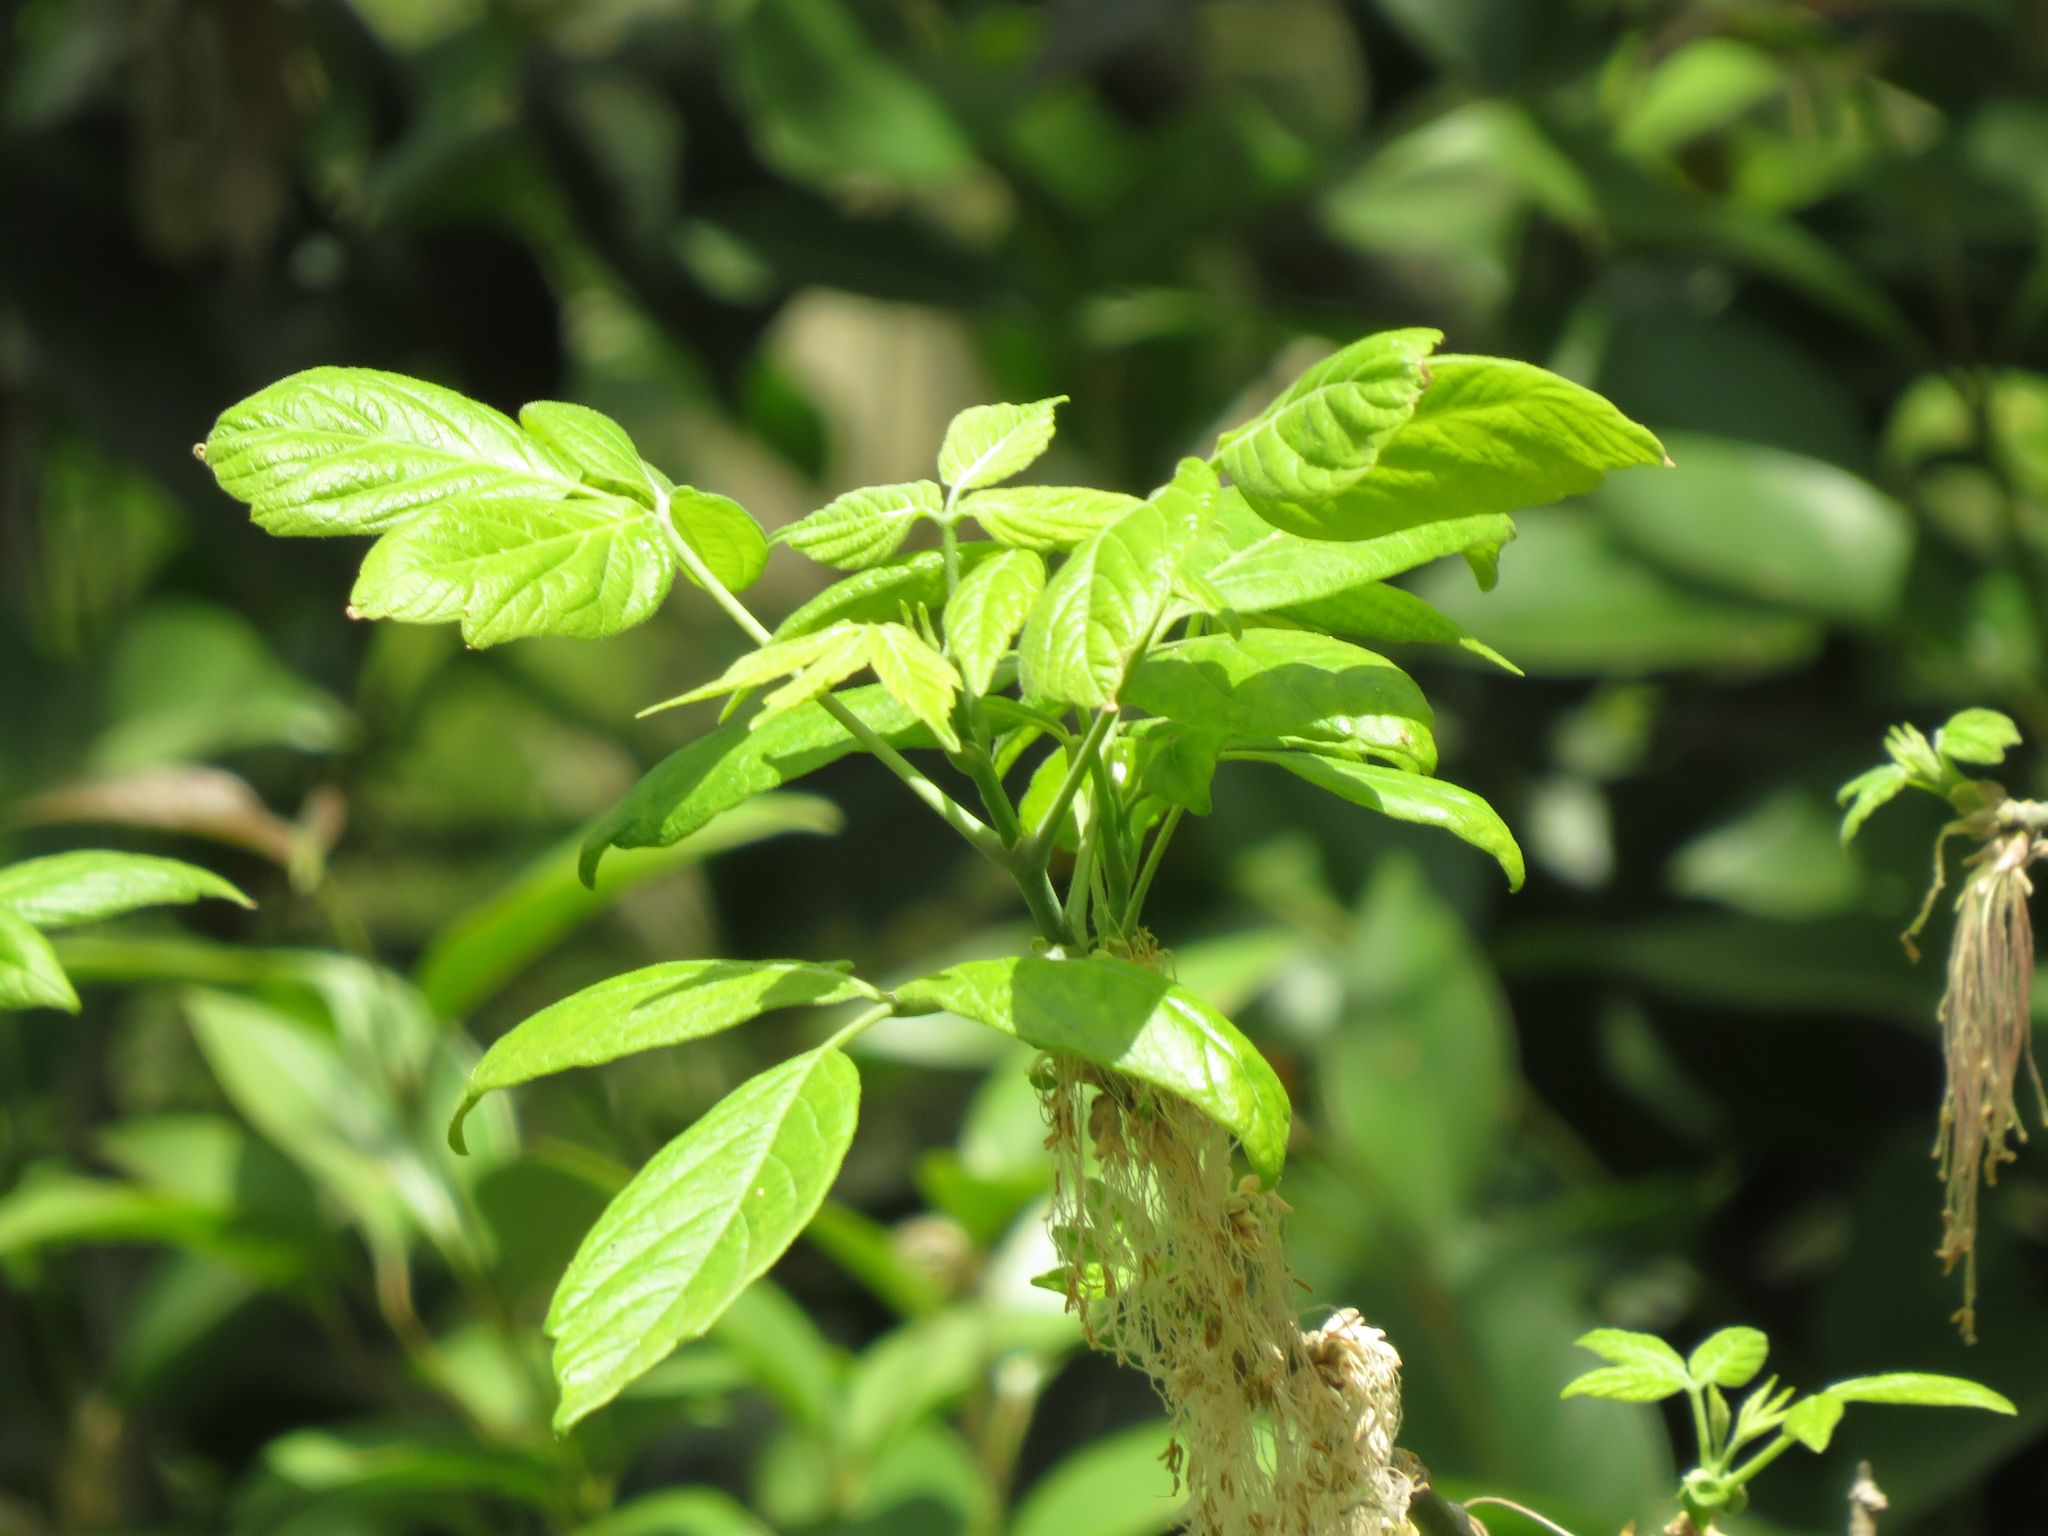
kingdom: Plantae
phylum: Tracheophyta
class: Magnoliopsida
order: Sapindales
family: Sapindaceae
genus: Acer
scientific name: Acer negundo
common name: Ashleaf maple
